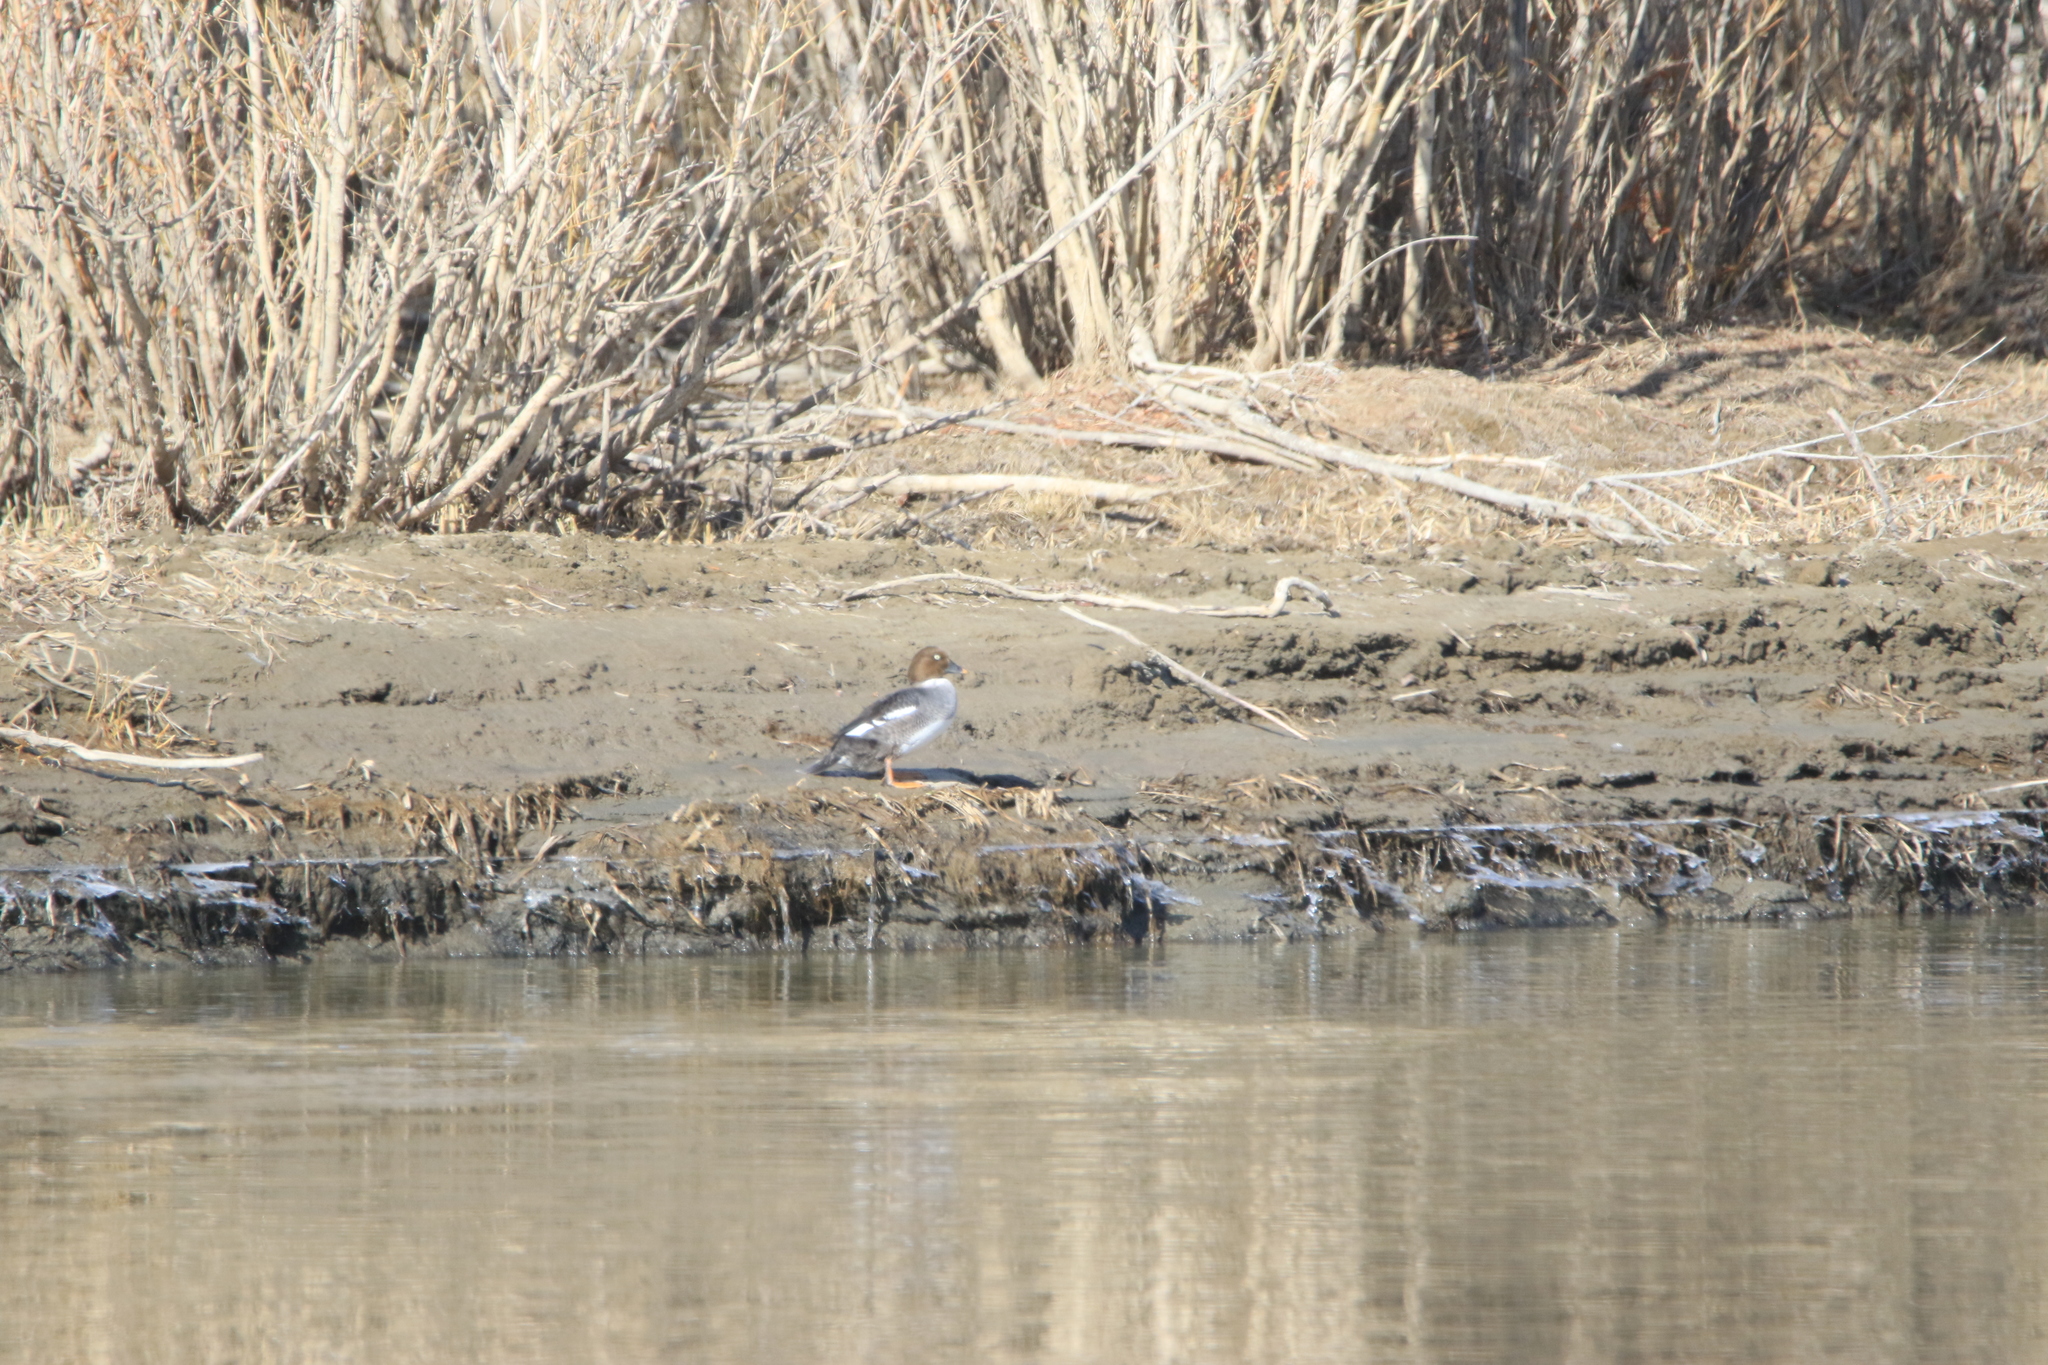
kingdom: Animalia
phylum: Chordata
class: Aves
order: Anseriformes
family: Anatidae
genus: Bucephala
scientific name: Bucephala clangula
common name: Common goldeneye
